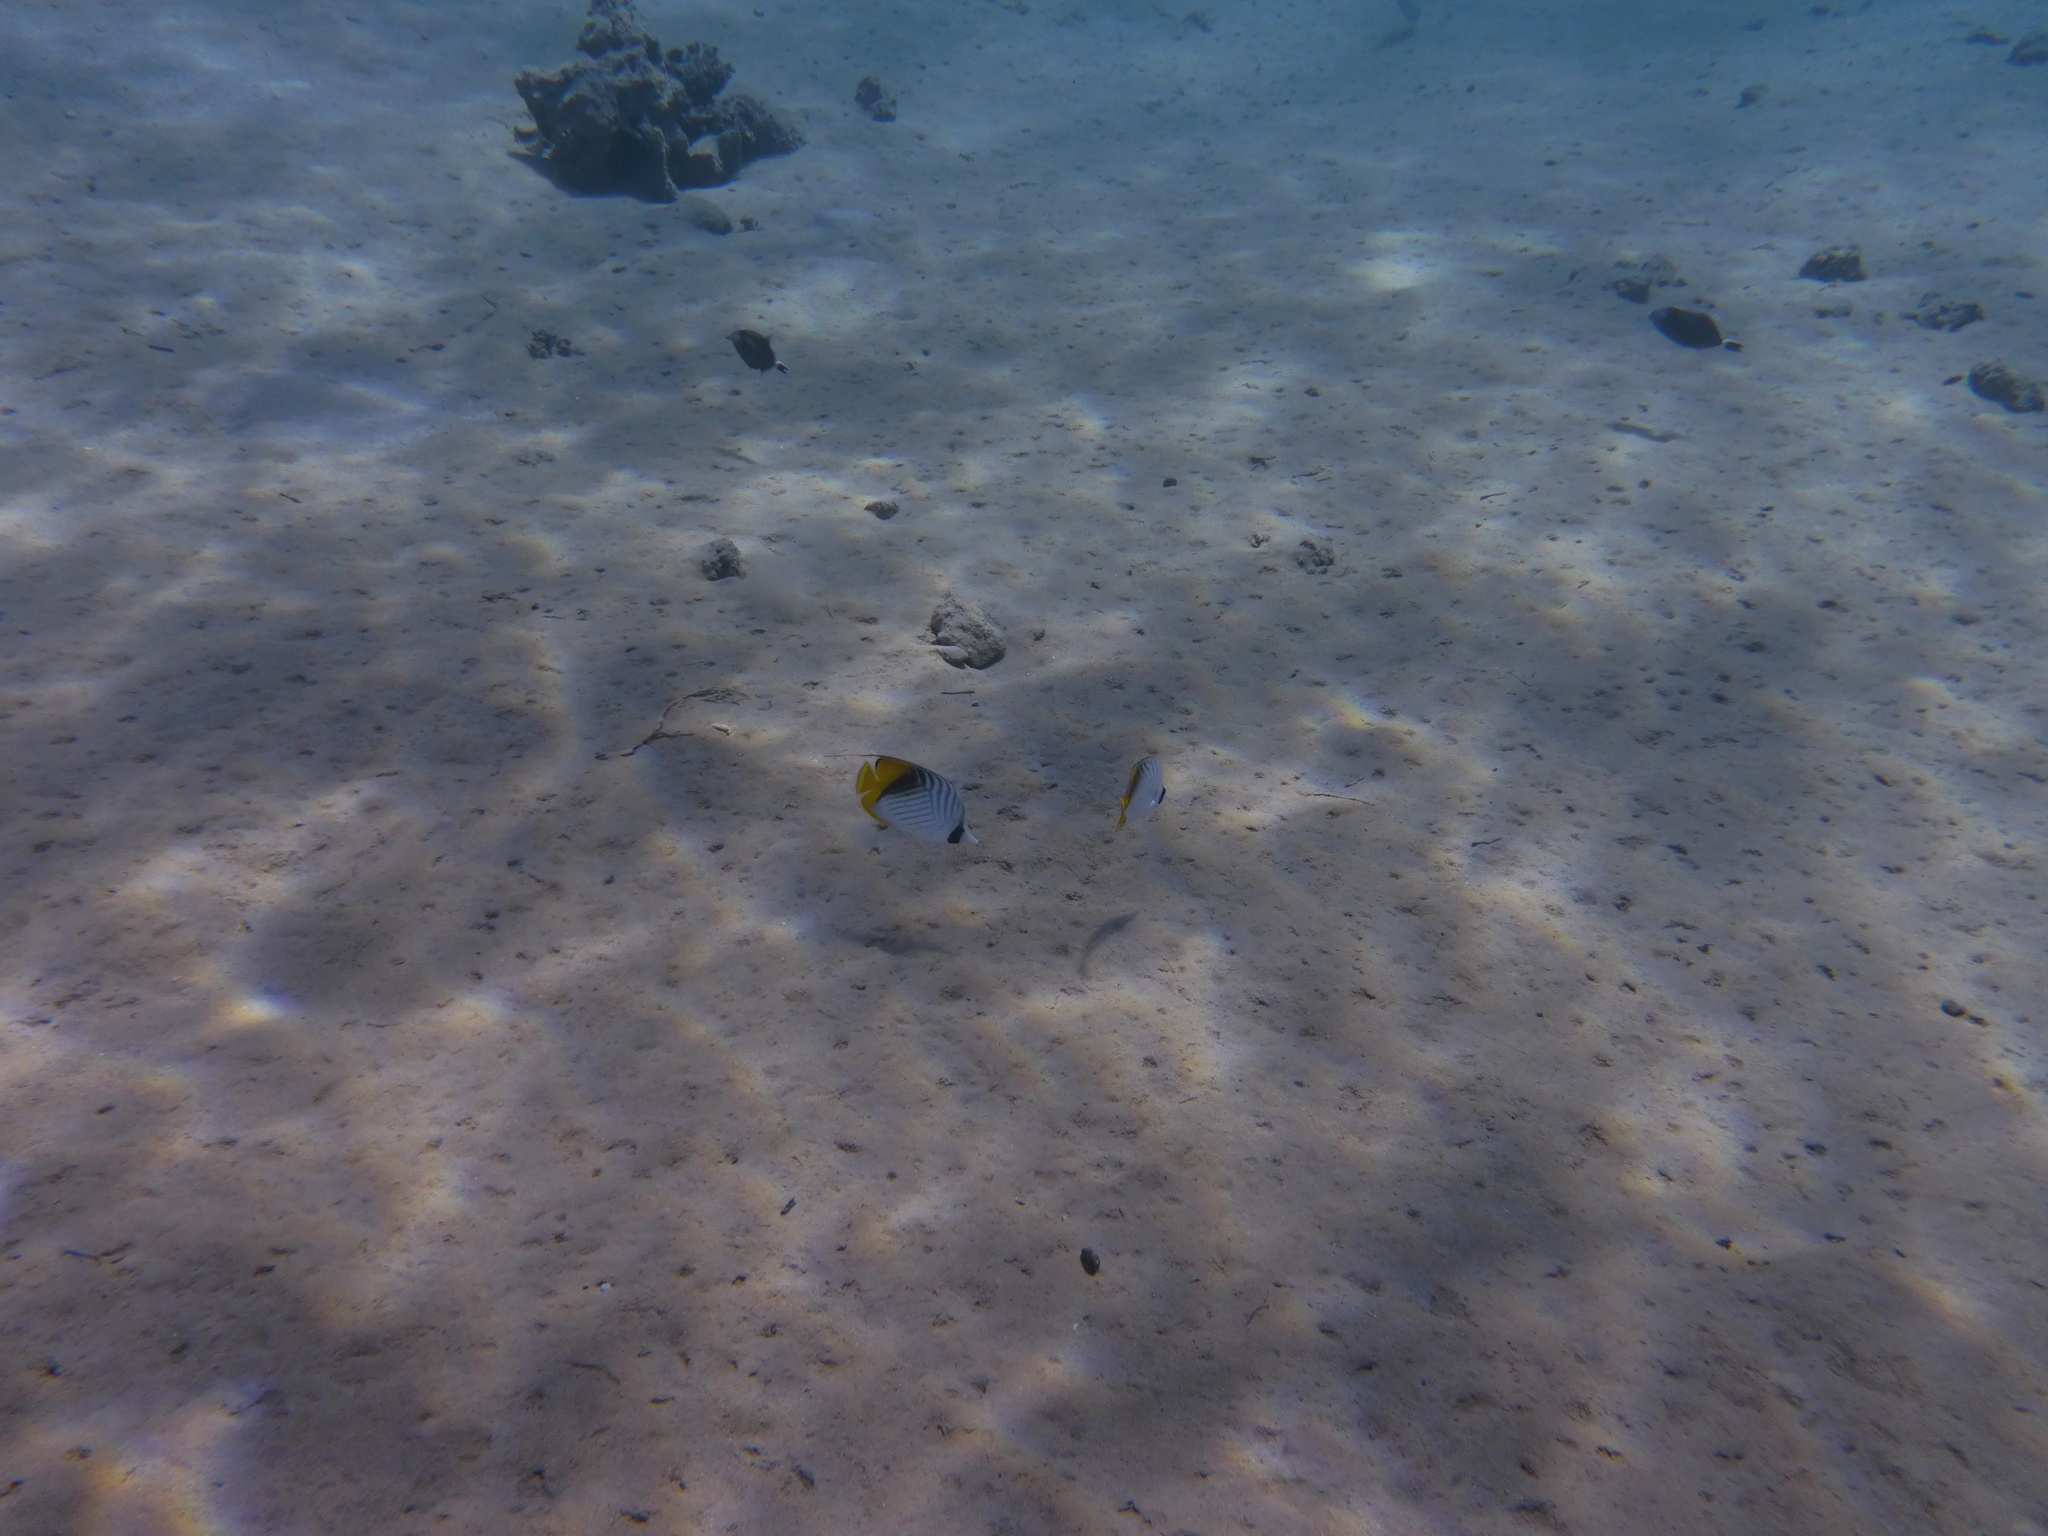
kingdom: Animalia
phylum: Chordata
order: Perciformes
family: Chaetodontidae
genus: Chaetodon
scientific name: Chaetodon auriga
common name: Threadfin butterflyfish
